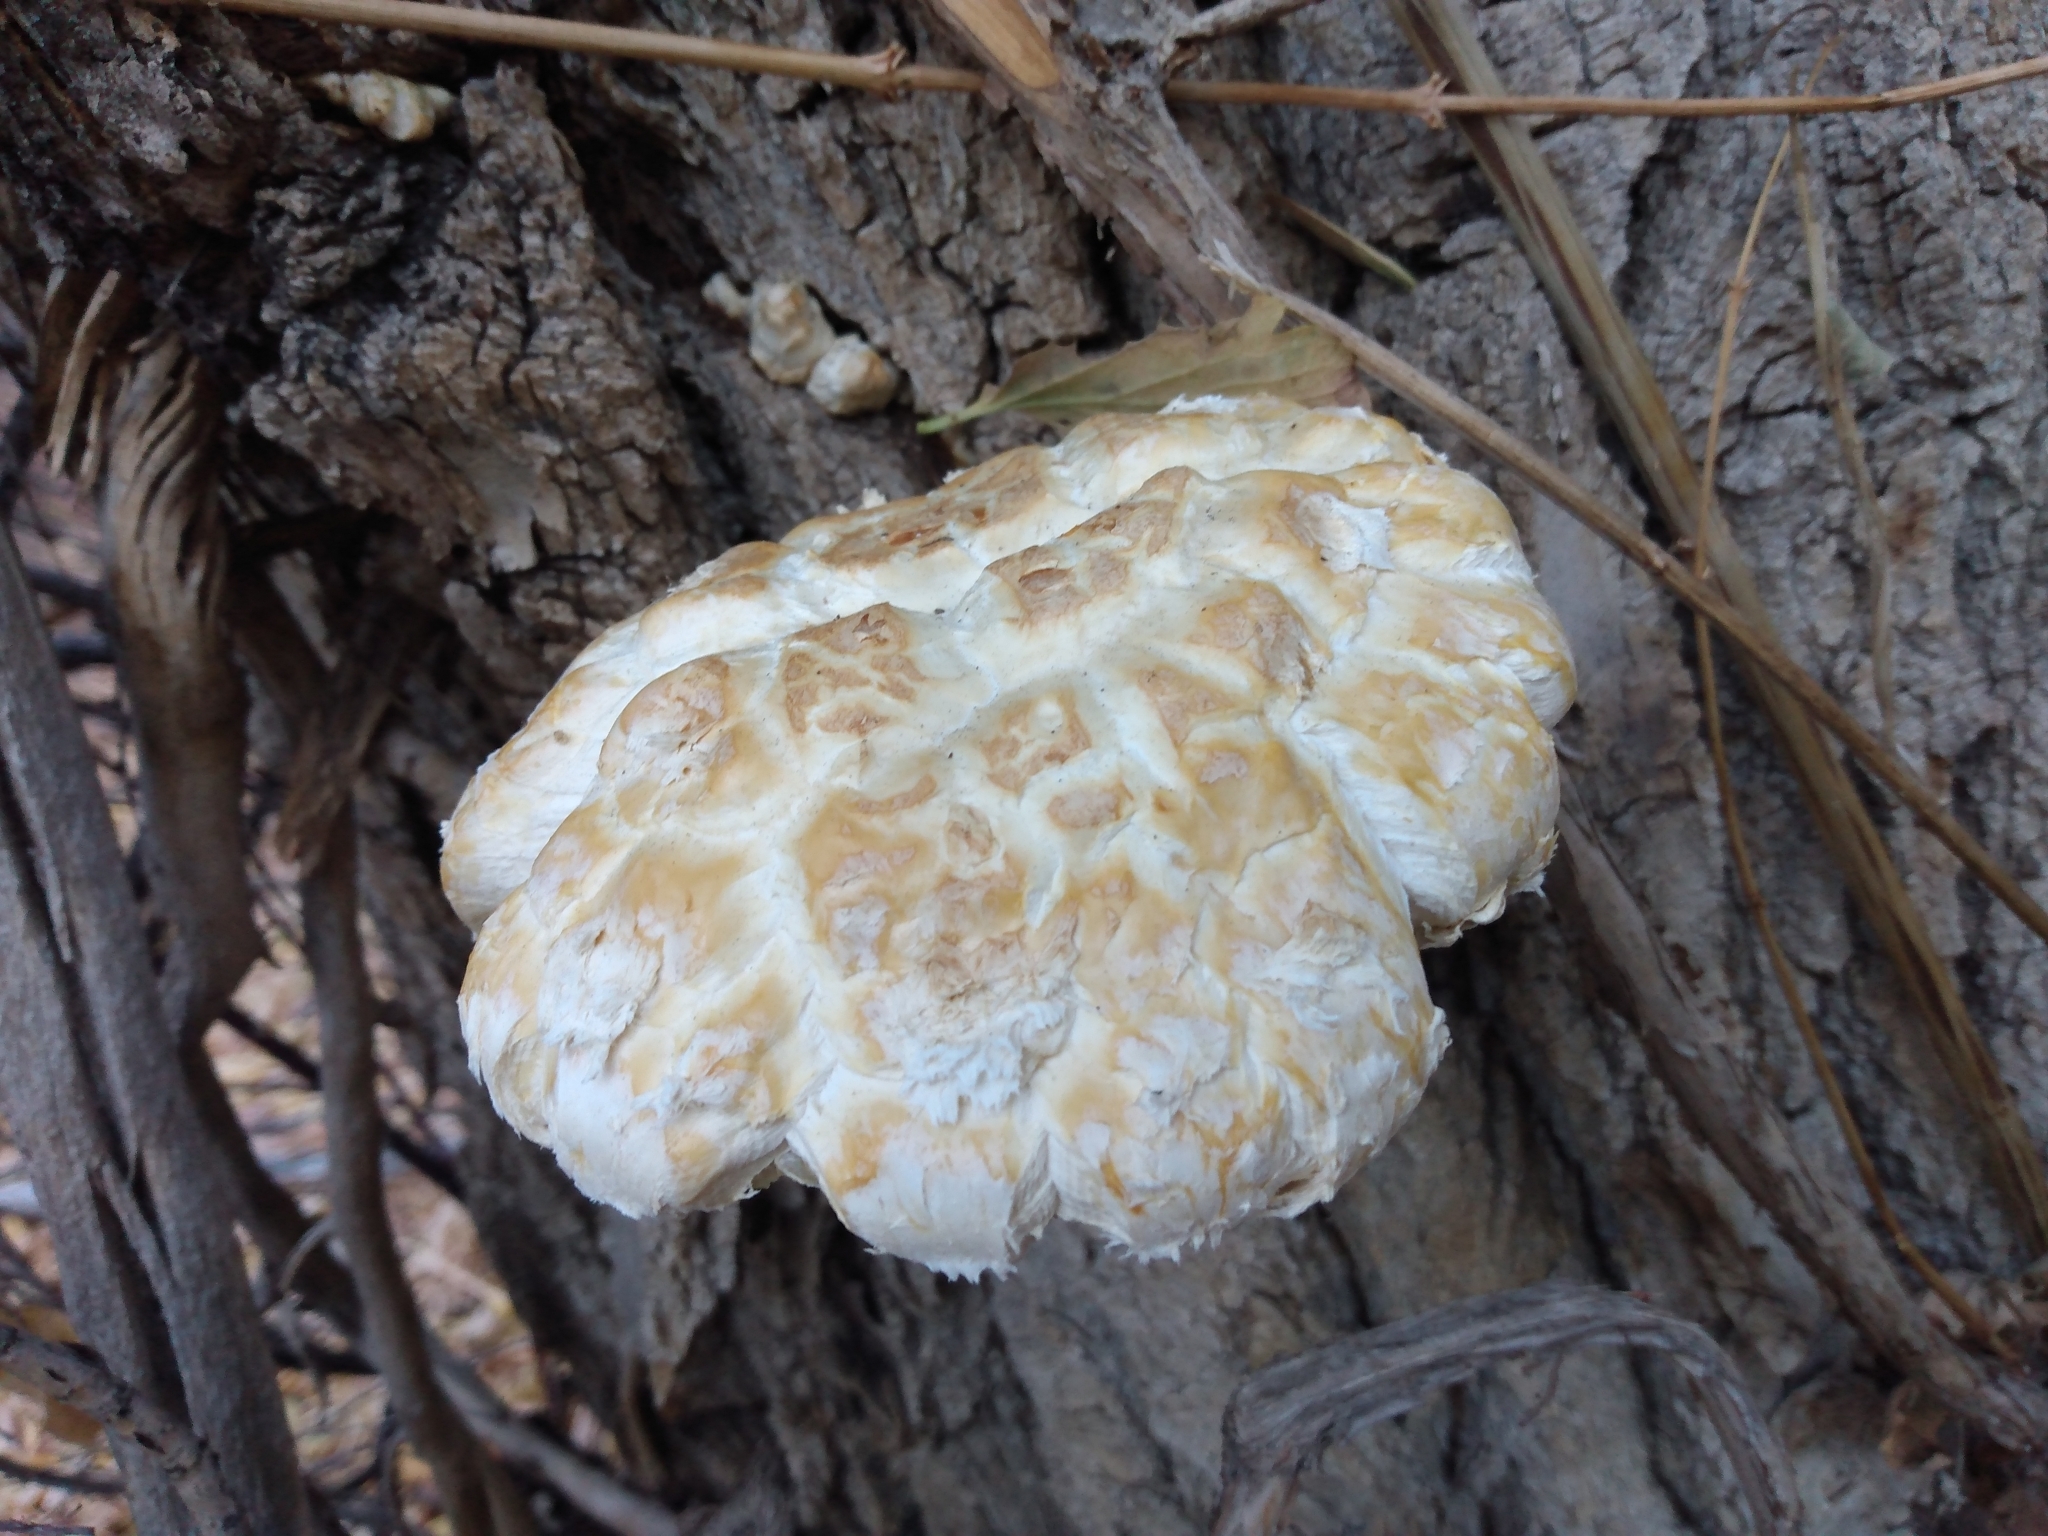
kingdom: Fungi
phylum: Basidiomycota
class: Agaricomycetes
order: Agaricales
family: Strophariaceae
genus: Pholiota
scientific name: Pholiota populnea
